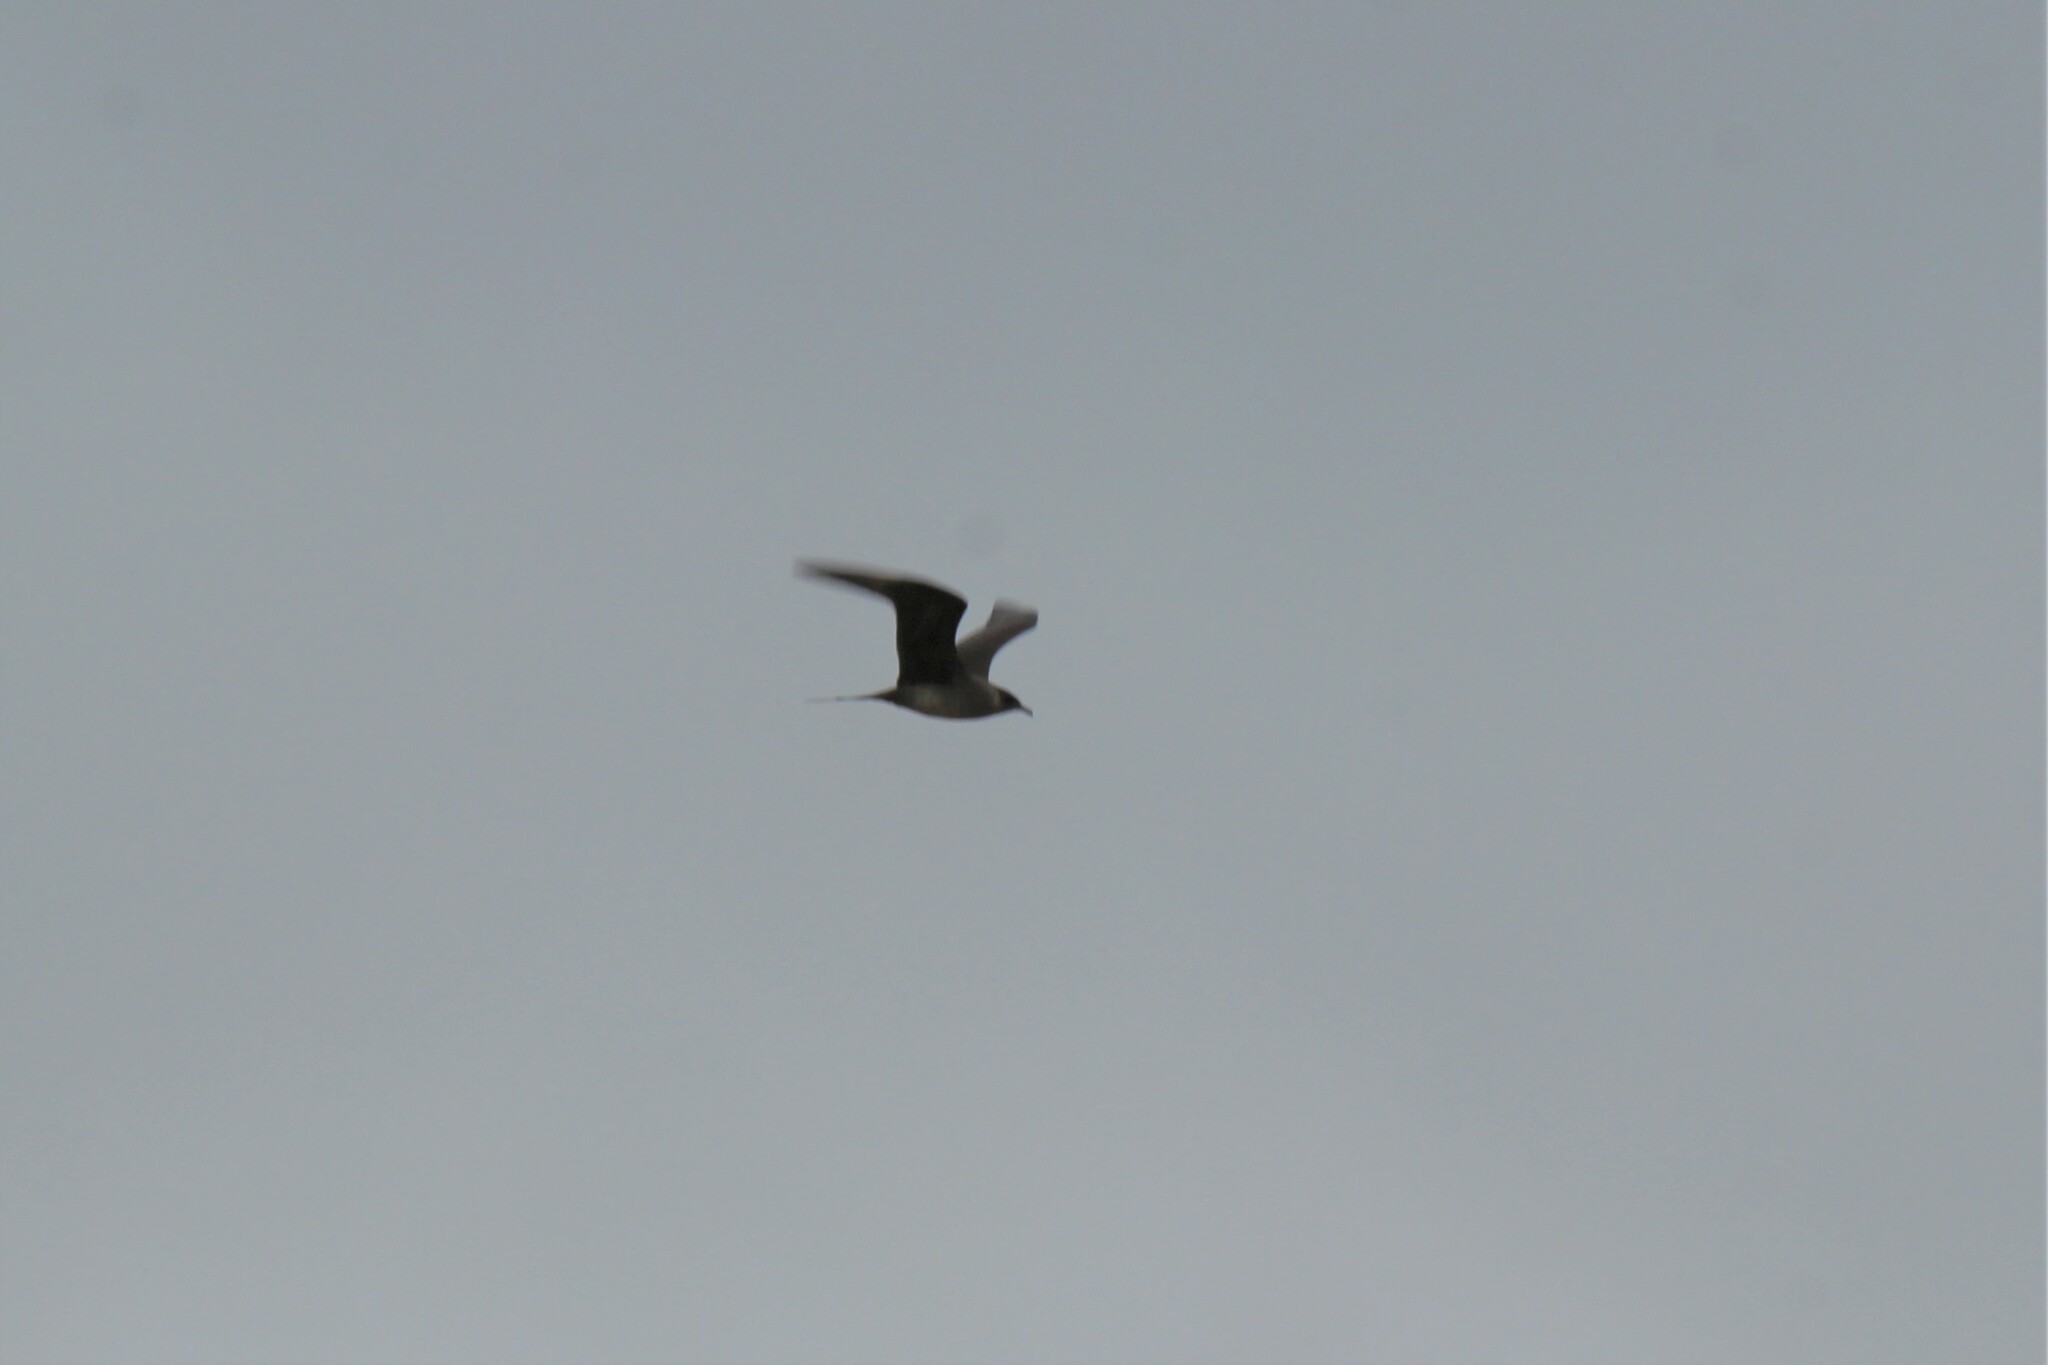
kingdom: Animalia
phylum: Chordata
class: Aves
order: Charadriiformes
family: Stercorariidae
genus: Stercorarius
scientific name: Stercorarius parasiticus
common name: Parasitic jaeger
